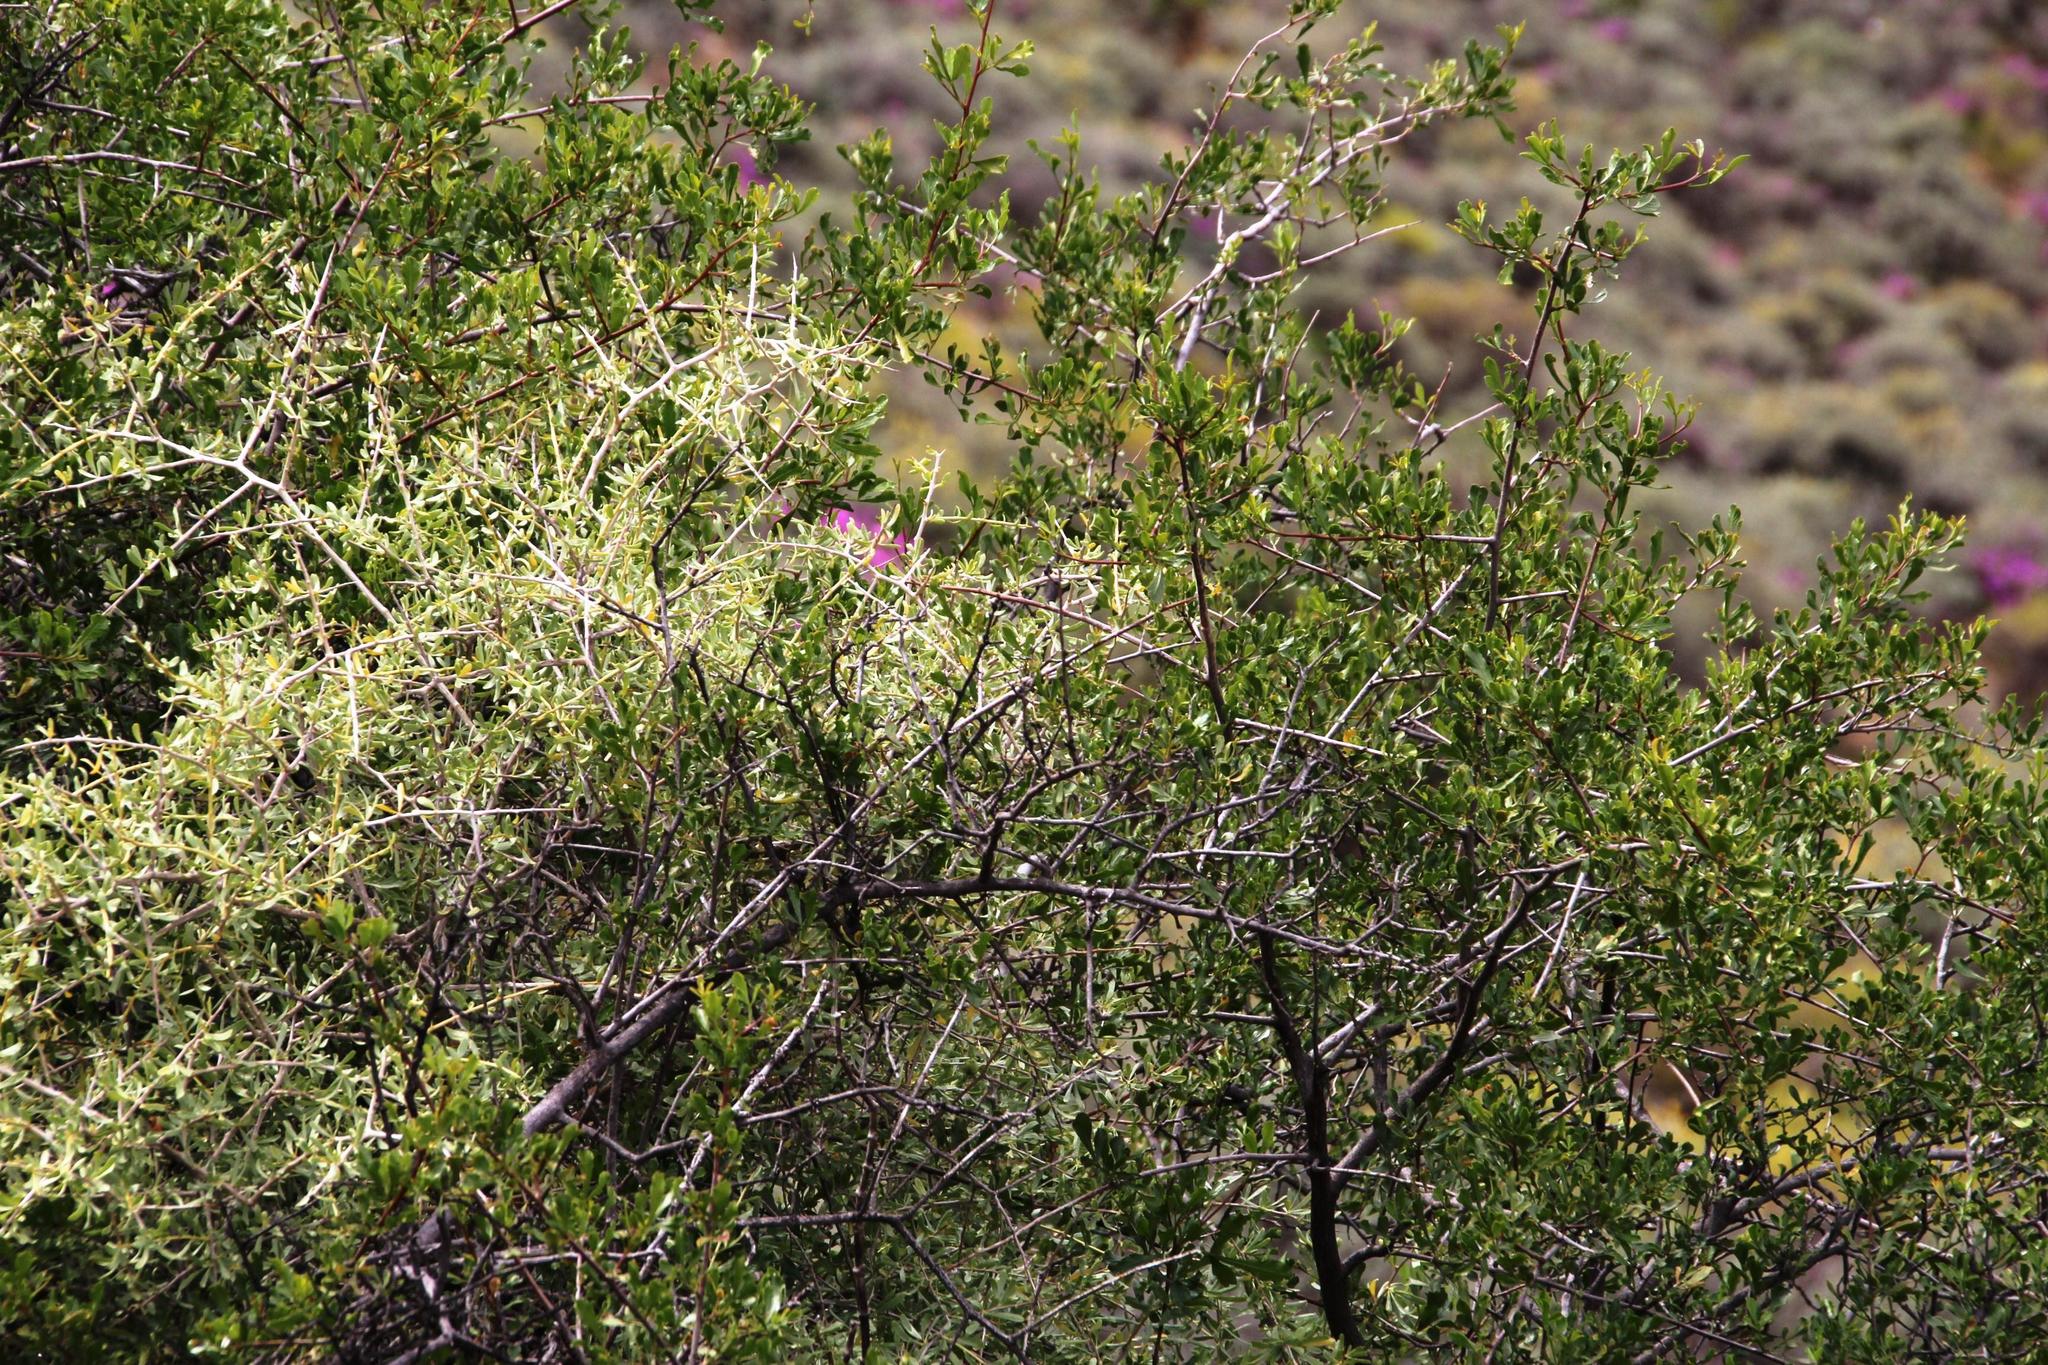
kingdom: Plantae
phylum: Tracheophyta
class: Magnoliopsida
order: Sapindales
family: Anacardiaceae
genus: Searsia
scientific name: Searsia undulata
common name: Namaqua kunibush
